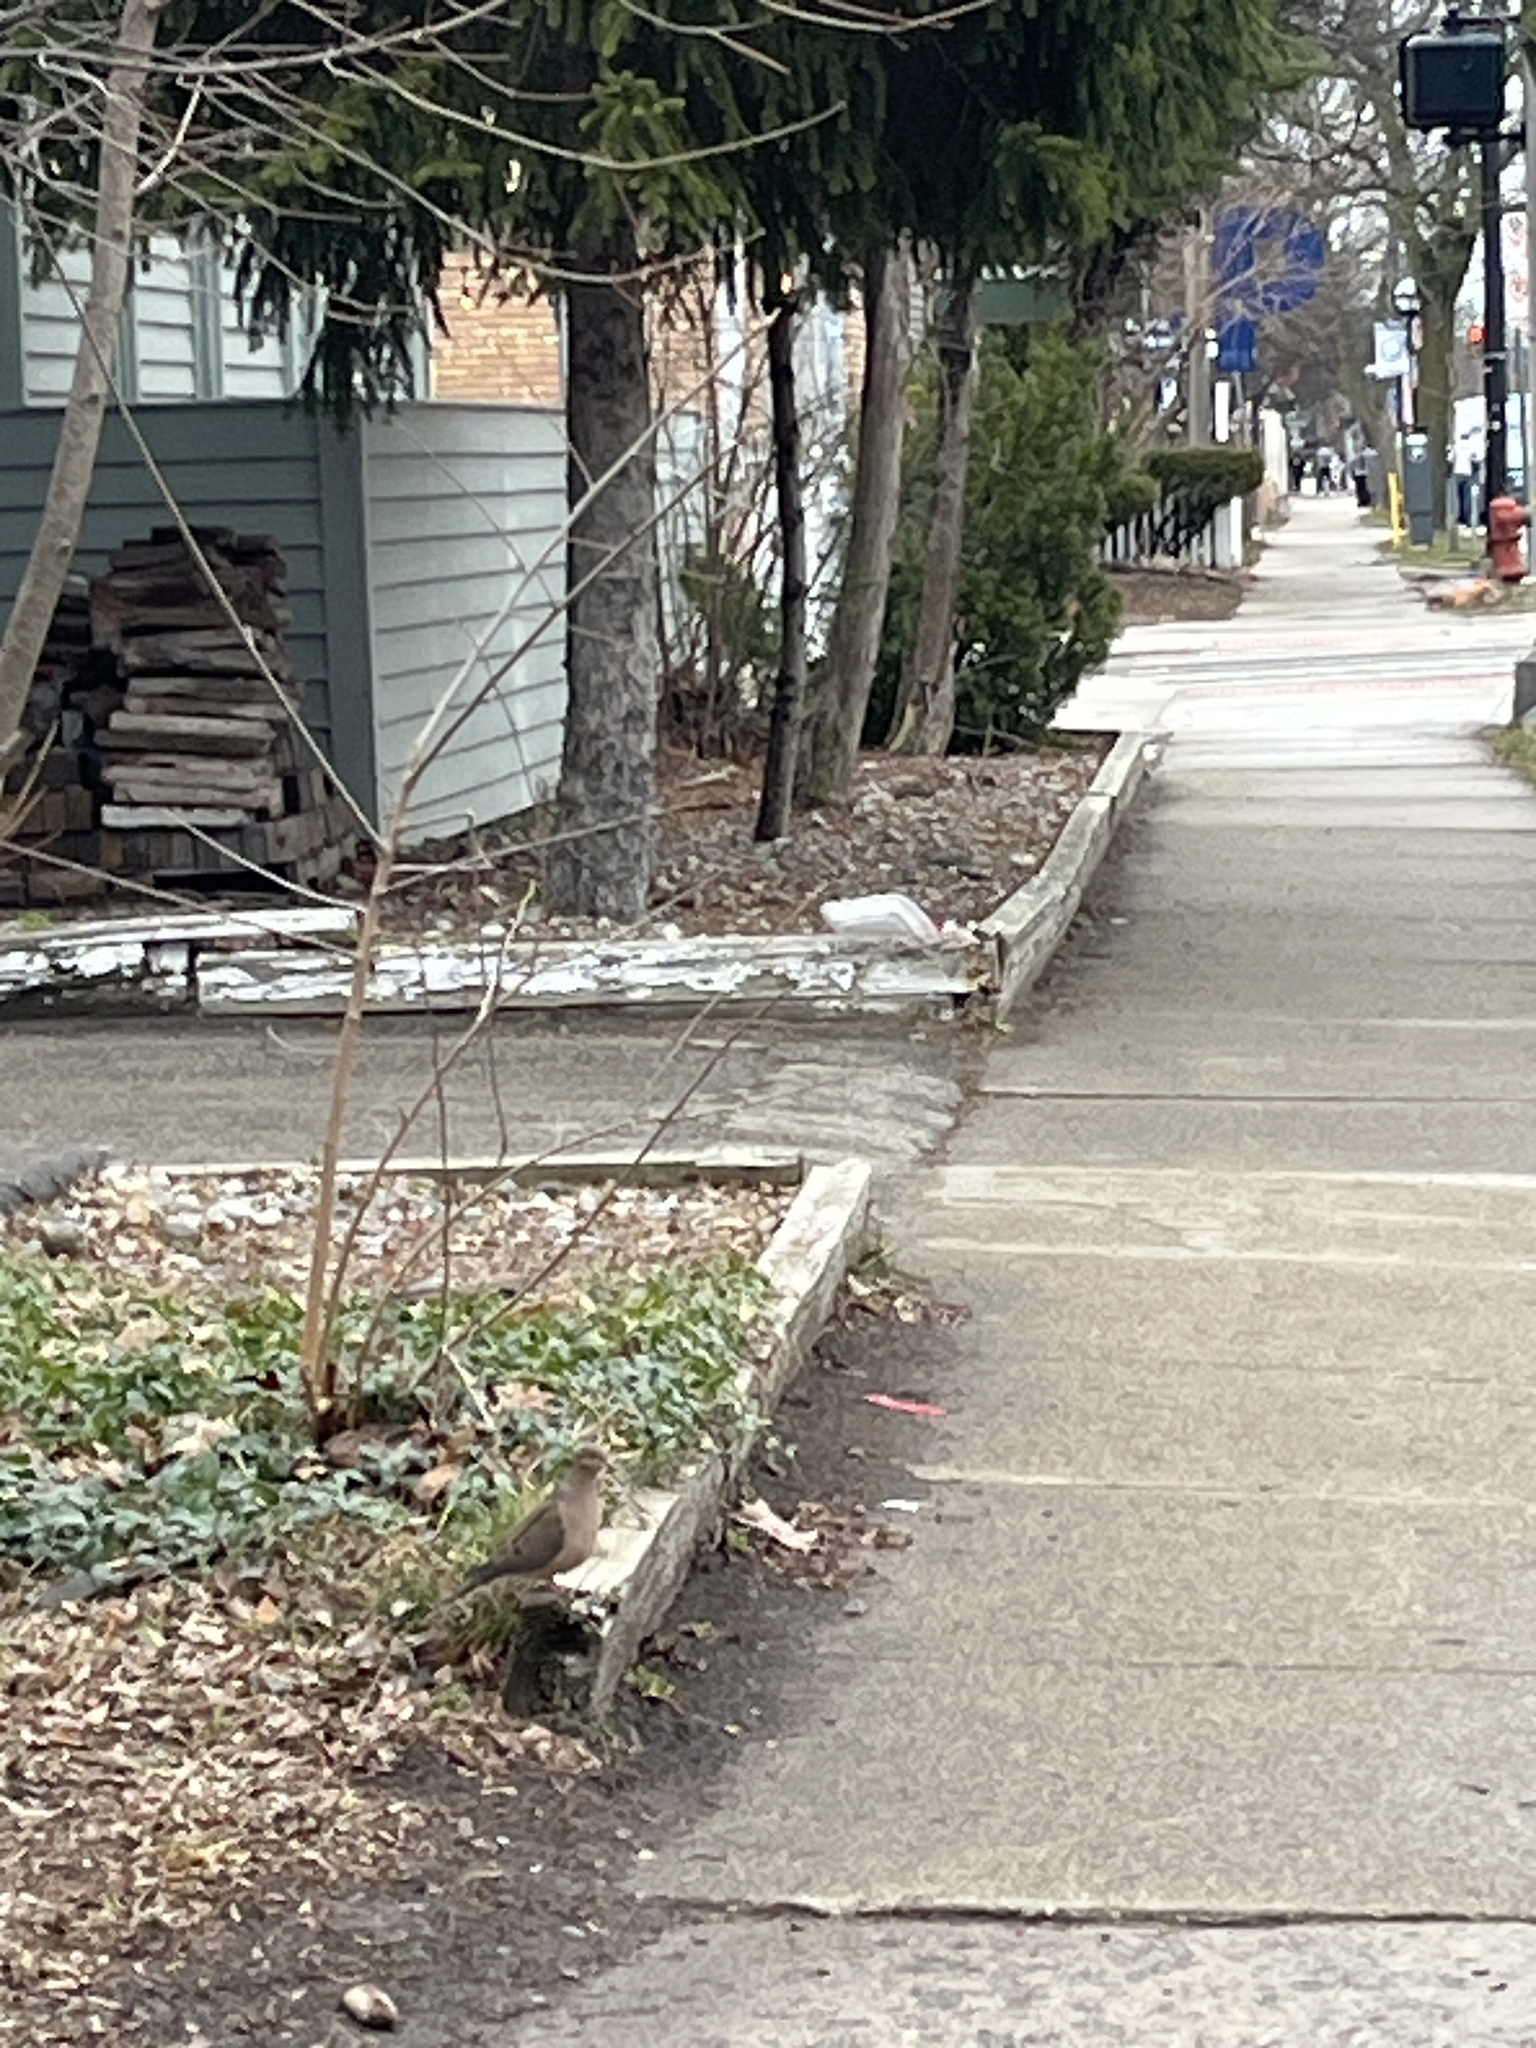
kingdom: Animalia
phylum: Chordata
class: Aves
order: Columbiformes
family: Columbidae
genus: Zenaida
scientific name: Zenaida macroura
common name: Mourning dove
